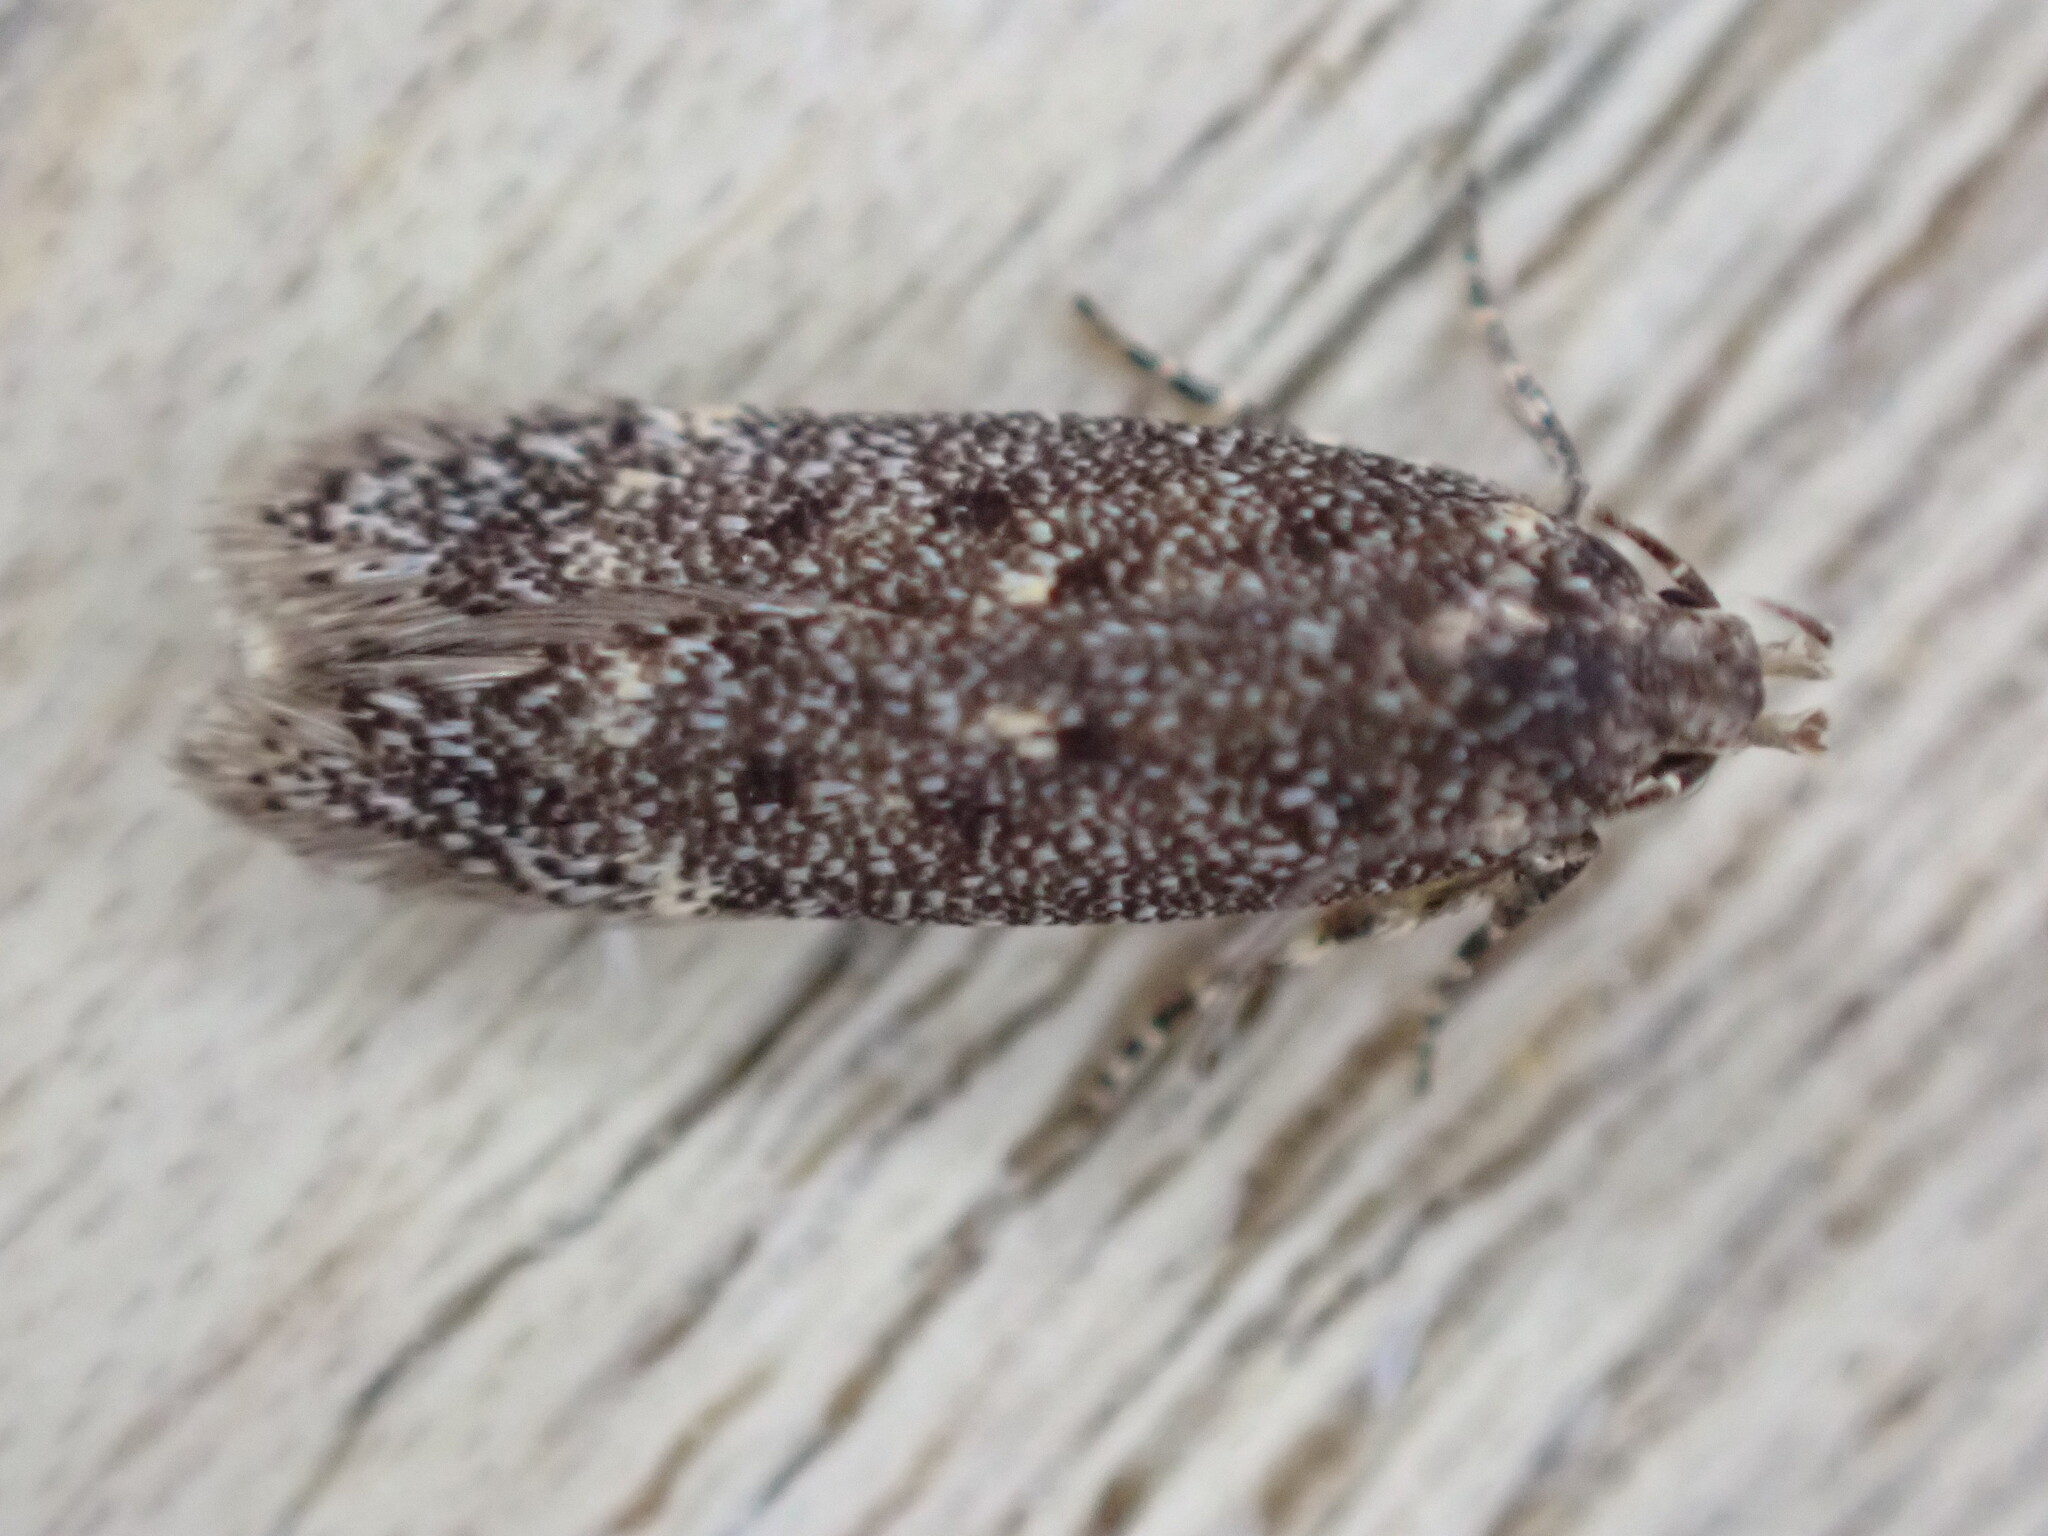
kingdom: Animalia
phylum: Arthropoda
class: Insecta
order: Lepidoptera
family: Gelechiidae
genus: Bryotropha
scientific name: Bryotropha affinis
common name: Dark groundling
